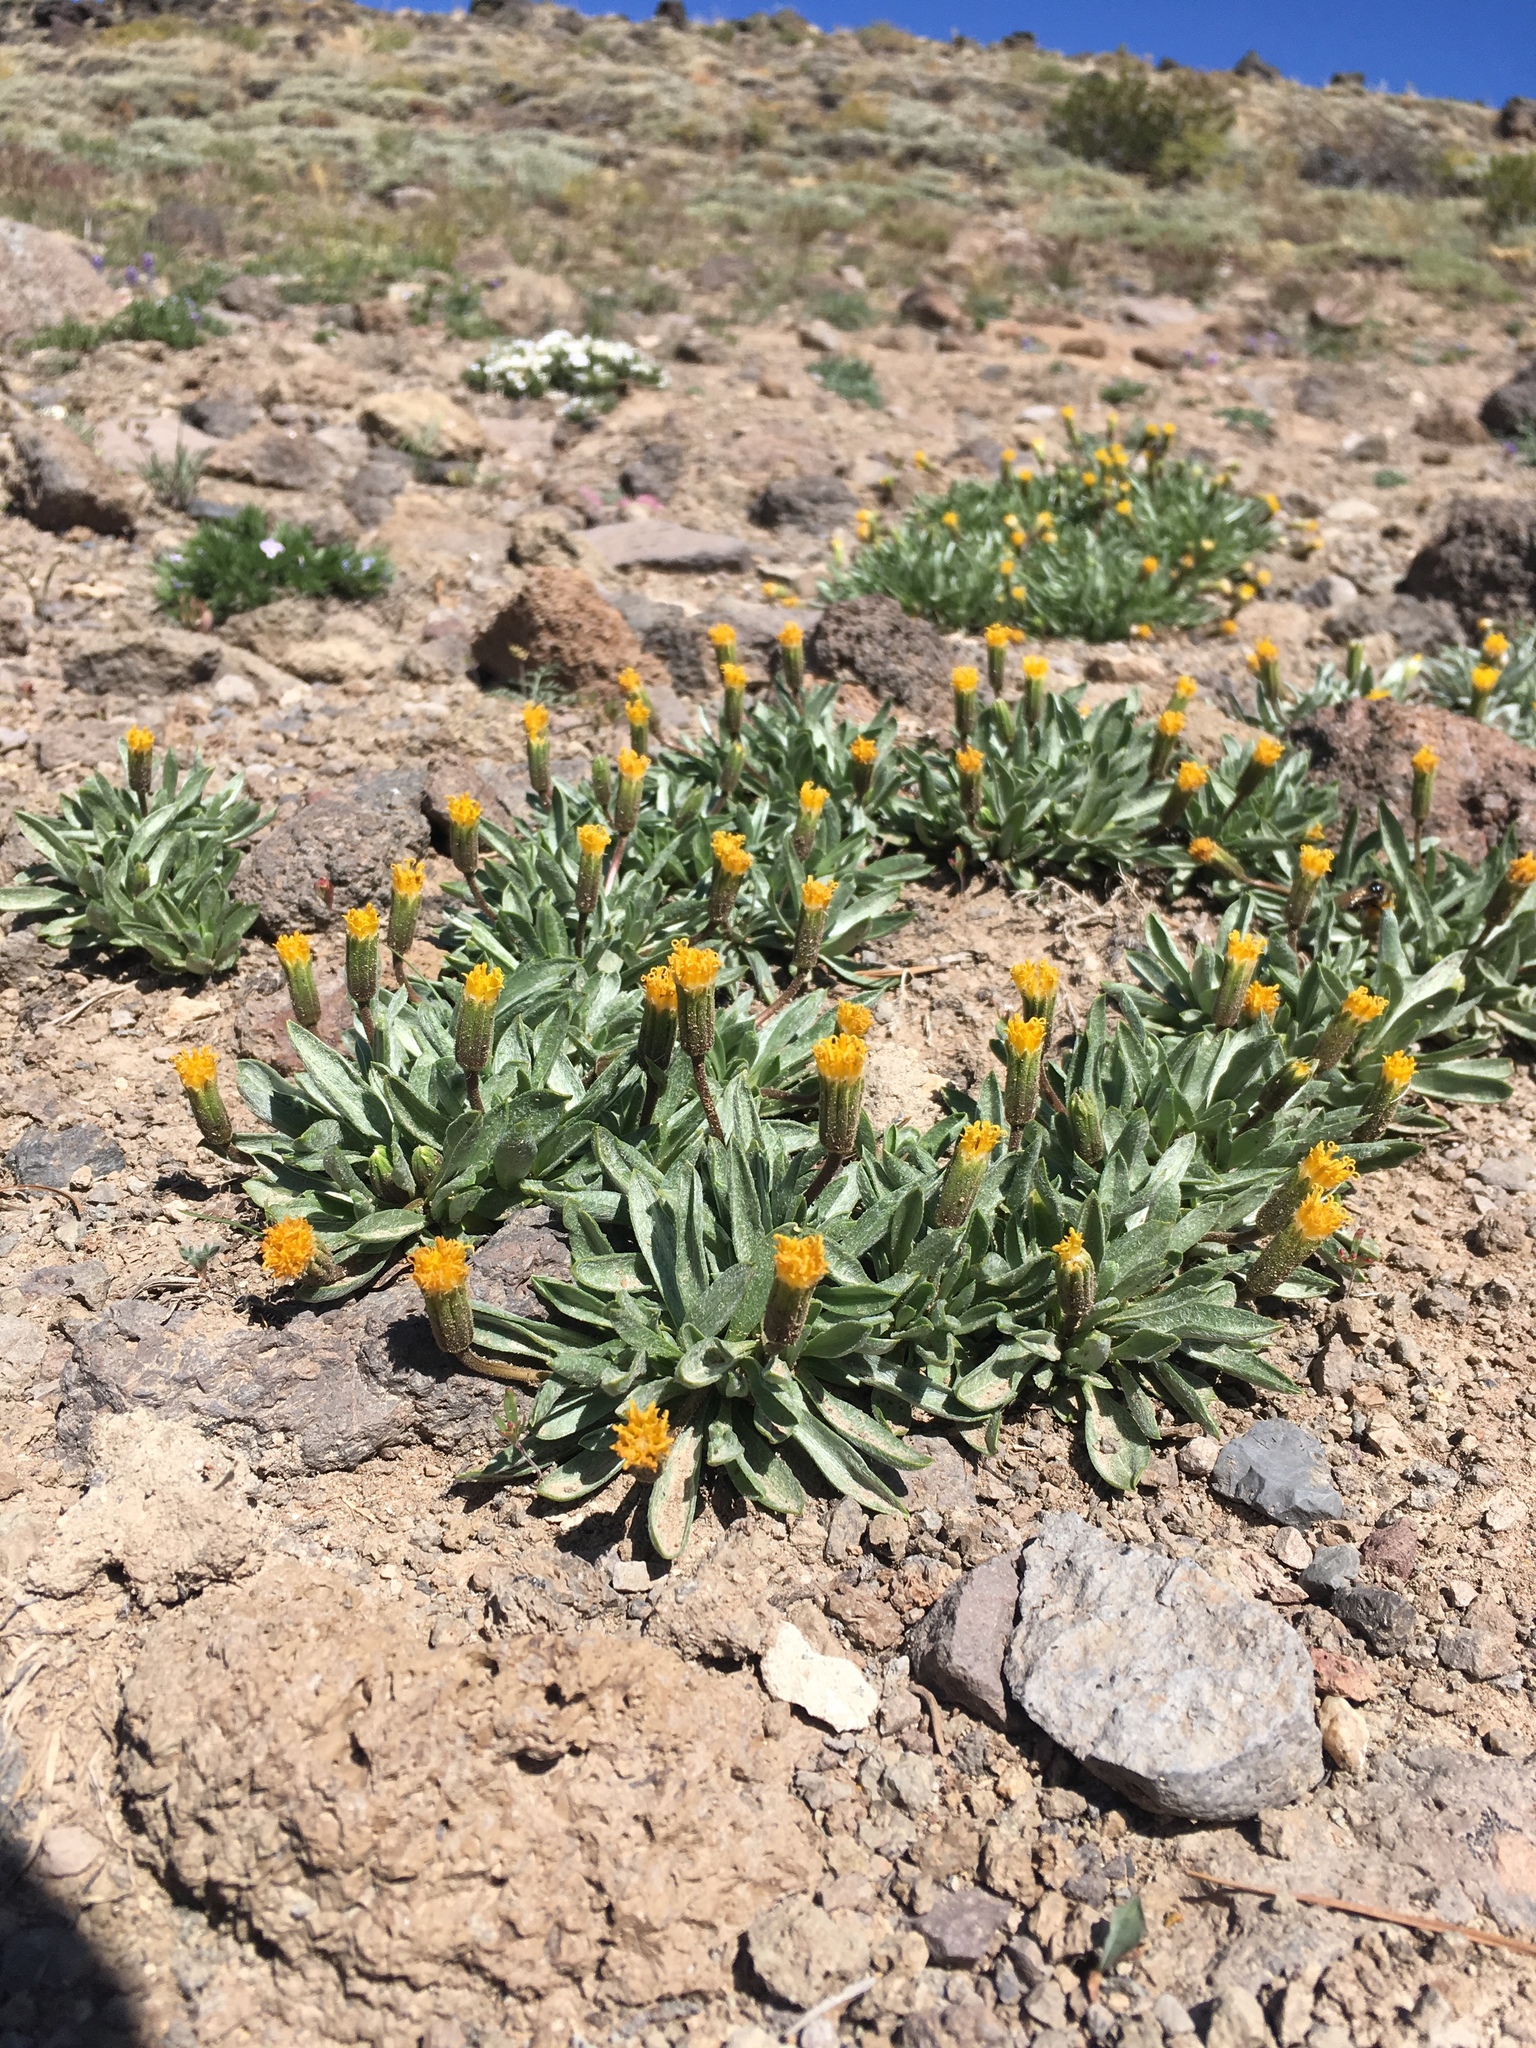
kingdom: Plantae
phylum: Tracheophyta
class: Magnoliopsida
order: Asterales
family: Asteraceae
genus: Raillardella
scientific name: Raillardella argentea
